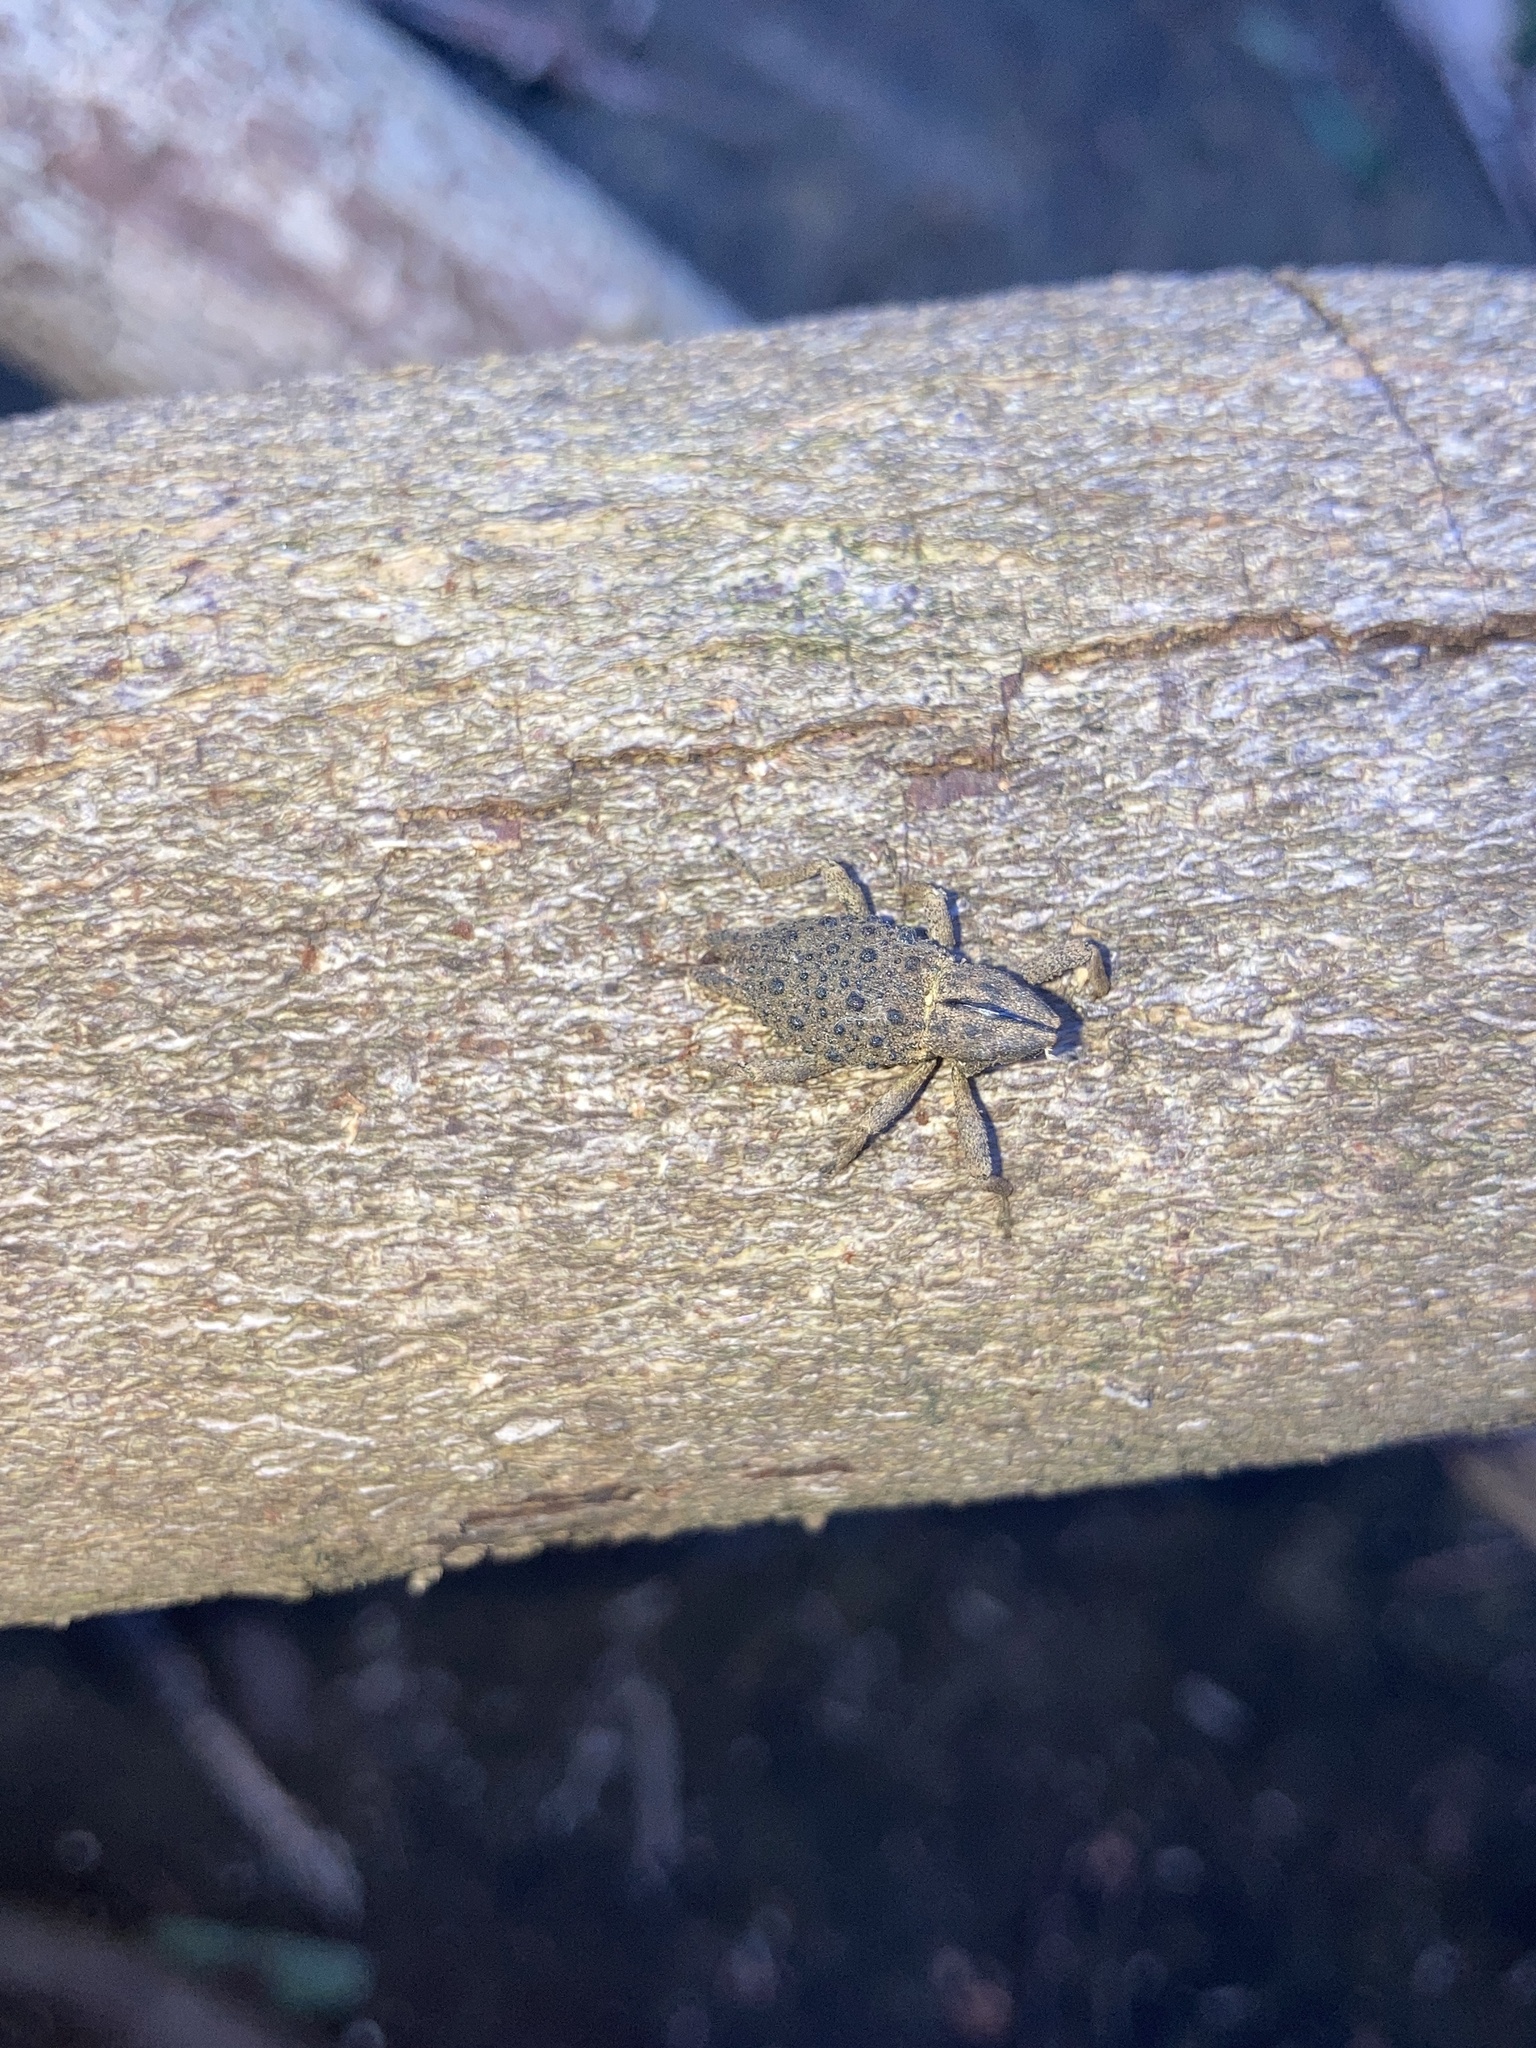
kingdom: Animalia
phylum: Arthropoda
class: Insecta
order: Coleoptera
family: Curculionidae
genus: Poropterus
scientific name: Poropterus ellipticus
